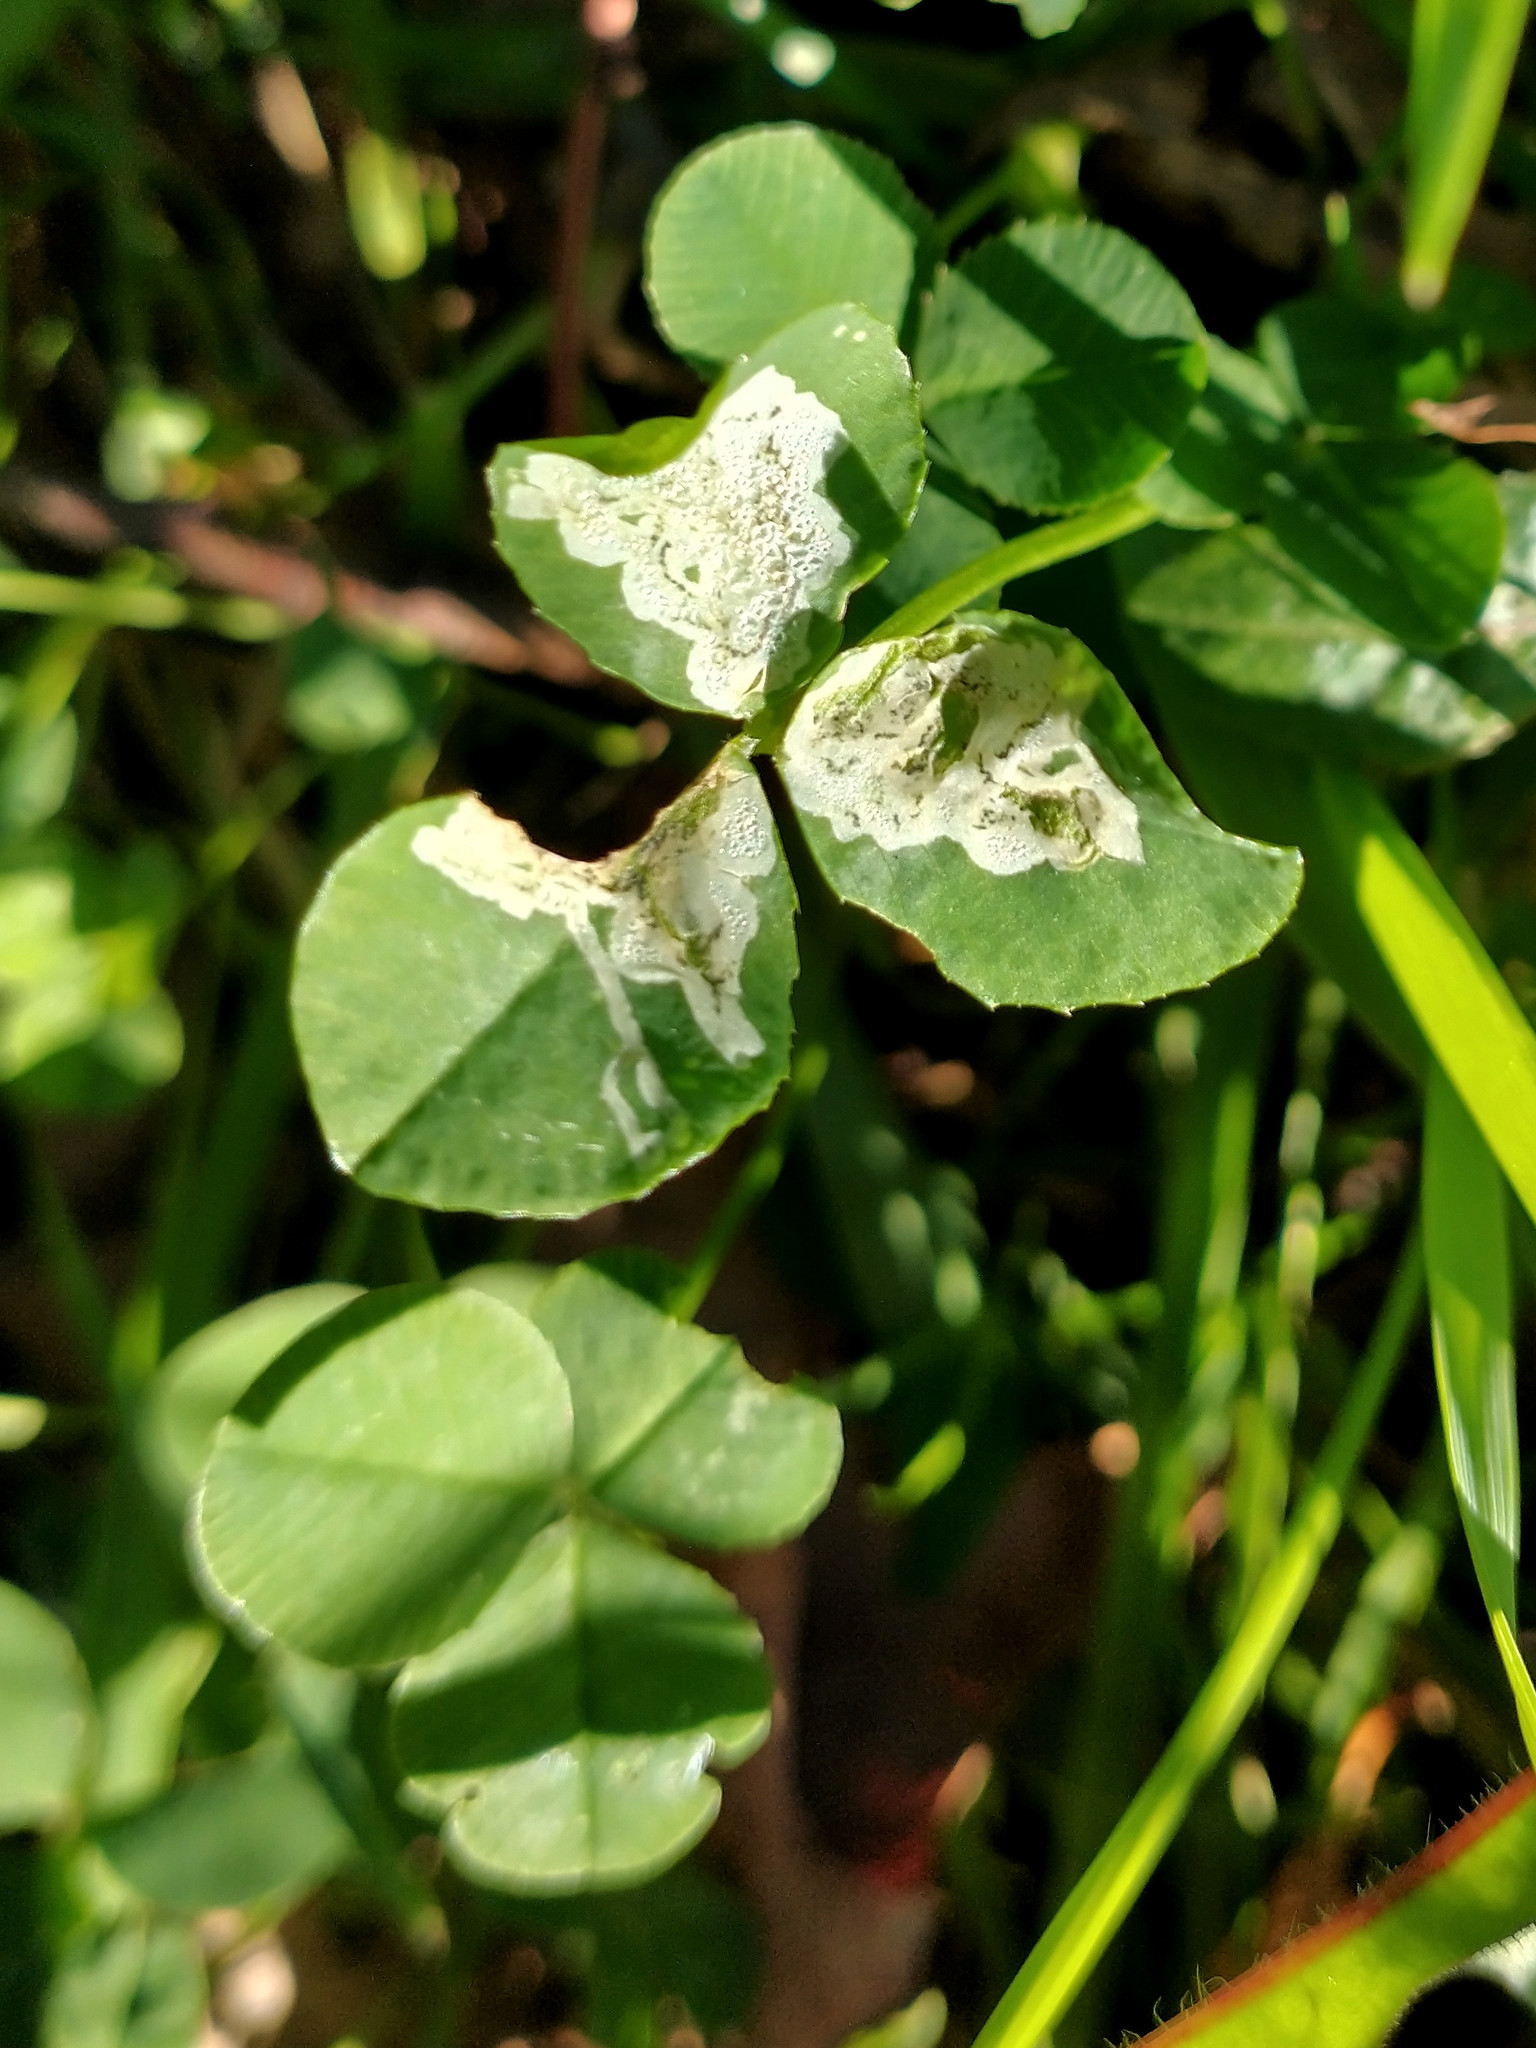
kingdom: Animalia
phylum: Arthropoda
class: Insecta
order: Diptera
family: Agromyzidae
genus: Liriomyza
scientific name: Liriomyza fricki
